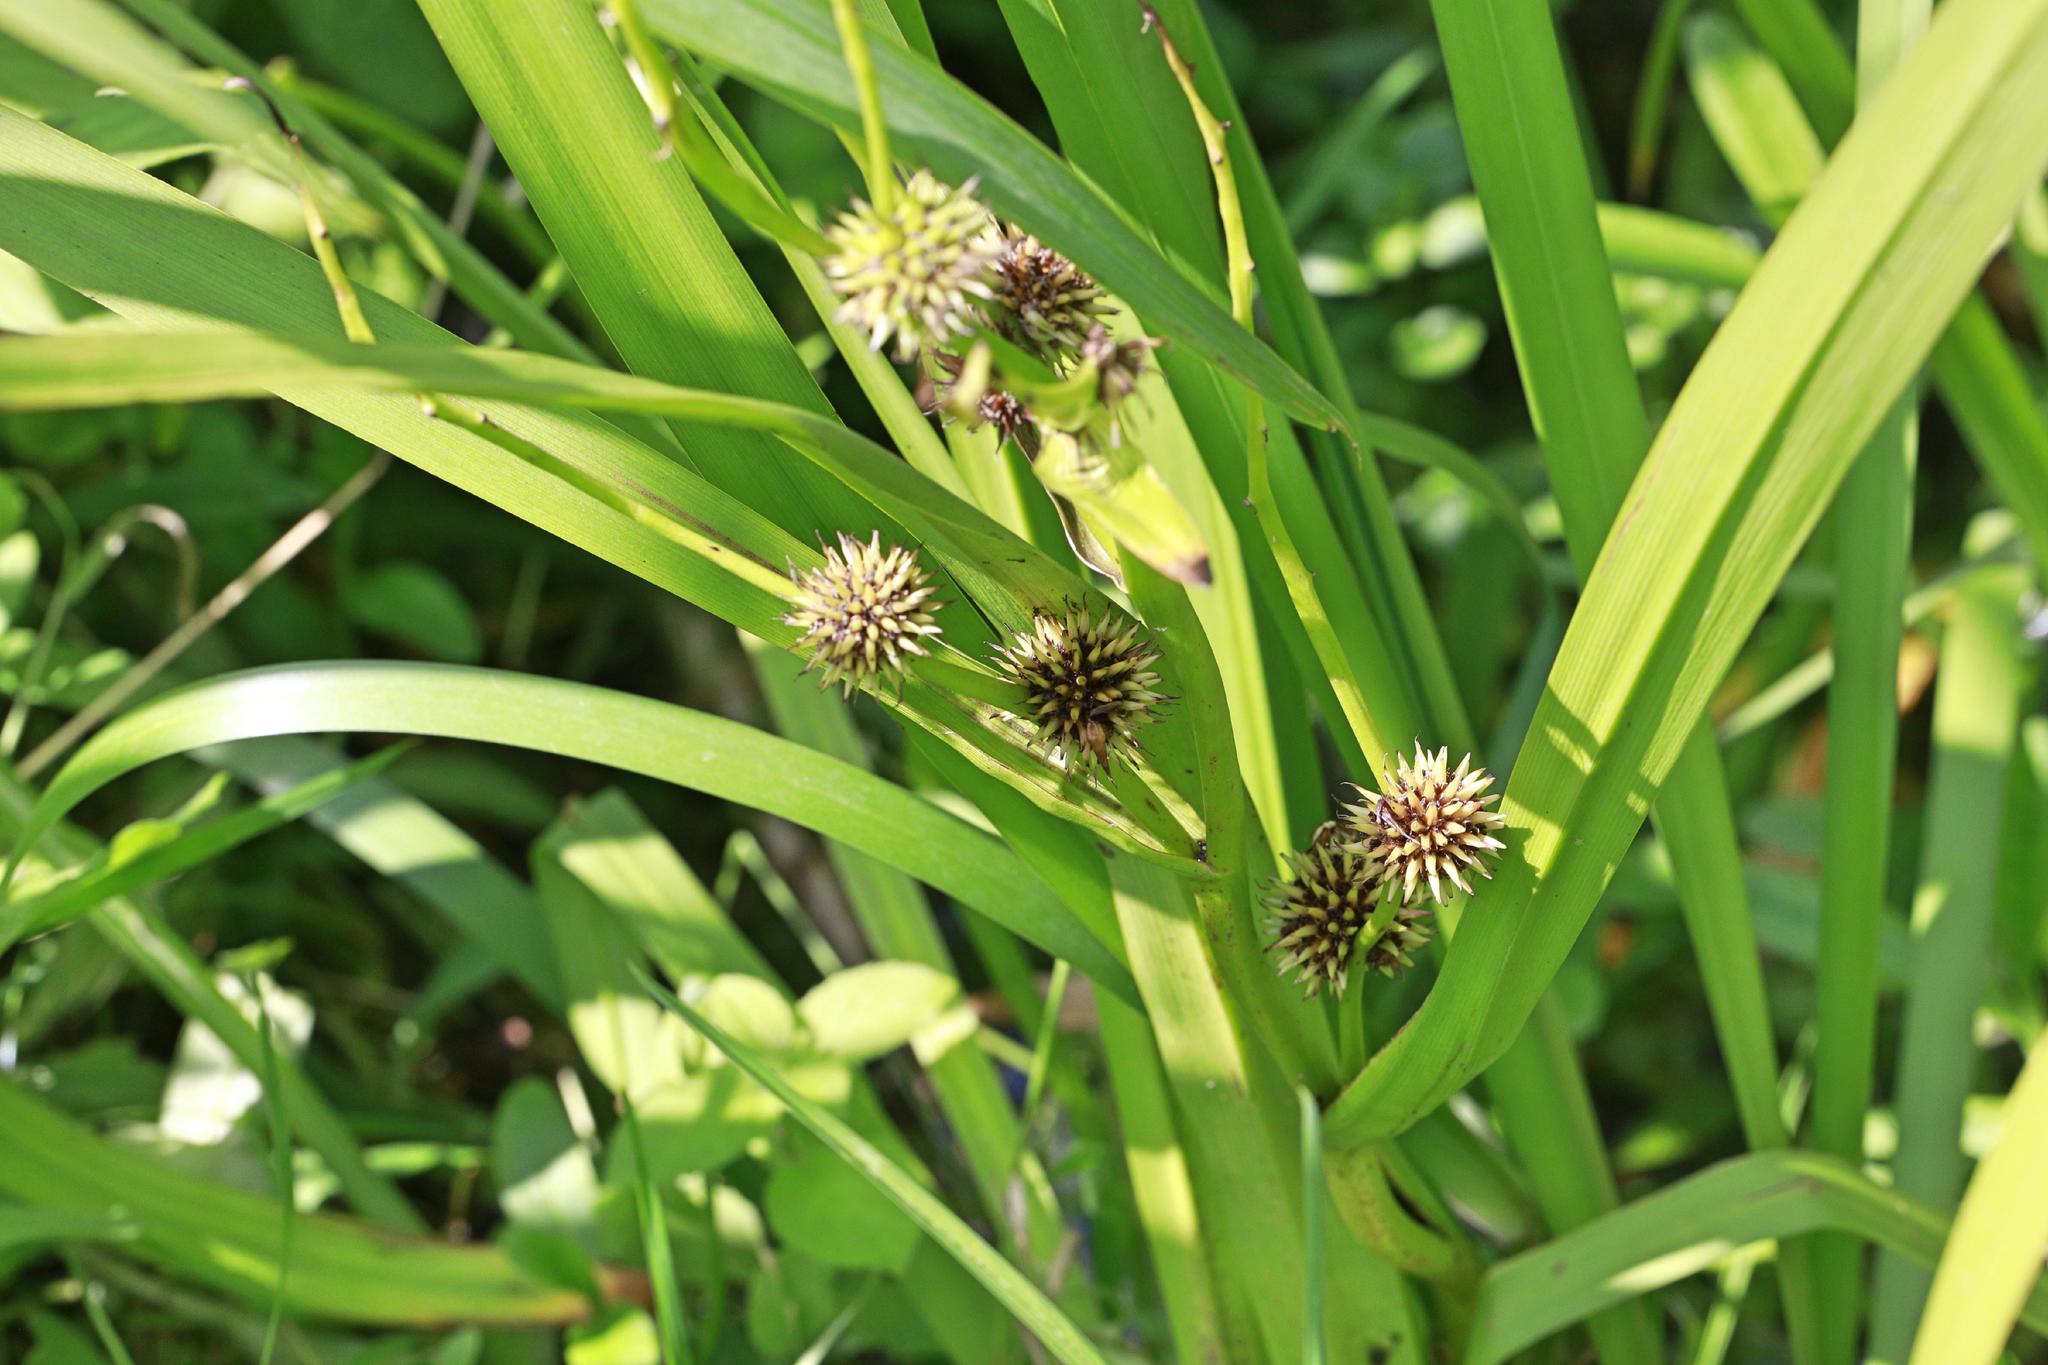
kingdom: Plantae
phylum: Tracheophyta
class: Liliopsida
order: Poales
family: Typhaceae
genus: Sparganium
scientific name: Sparganium erectum
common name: Branched bur-reed
